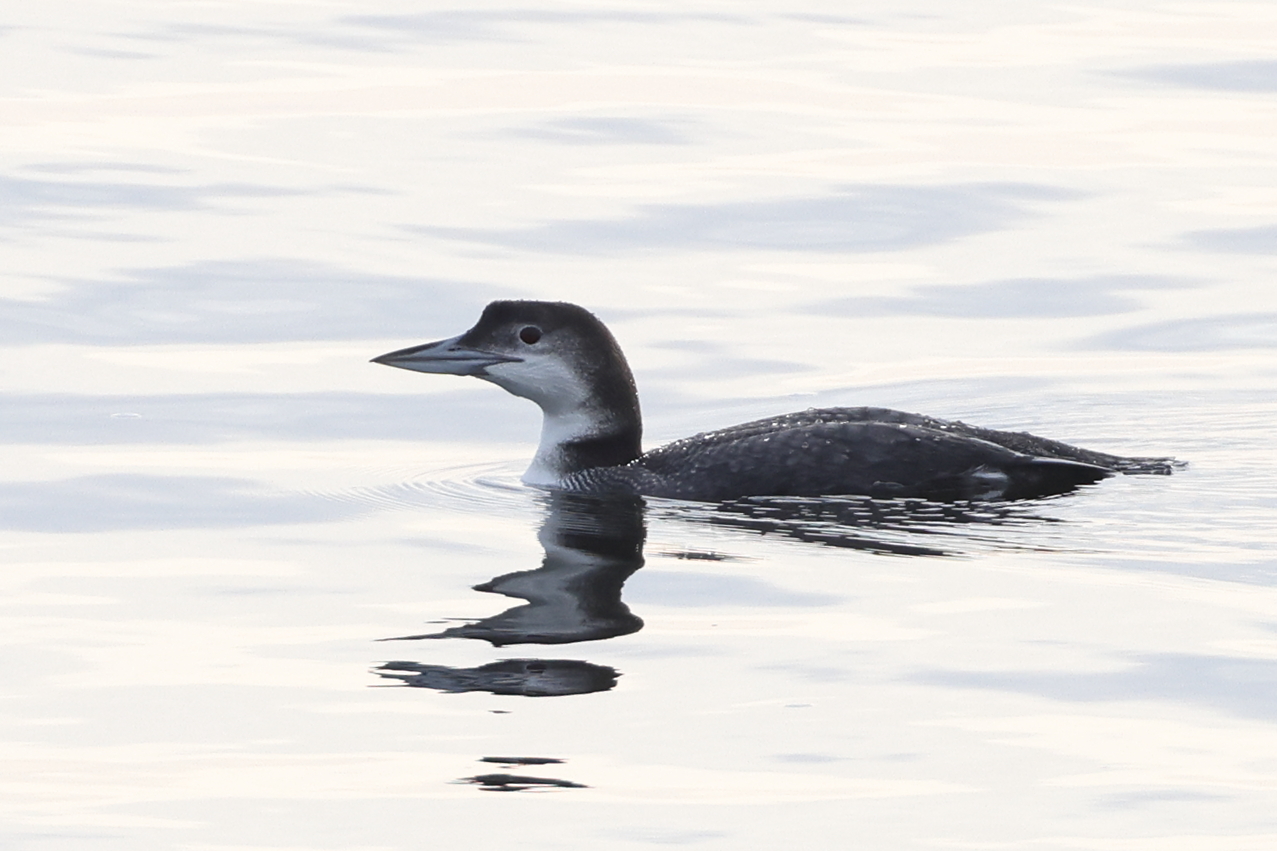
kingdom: Animalia
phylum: Chordata
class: Aves
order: Gaviiformes
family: Gaviidae
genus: Gavia
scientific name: Gavia immer
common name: Common loon
